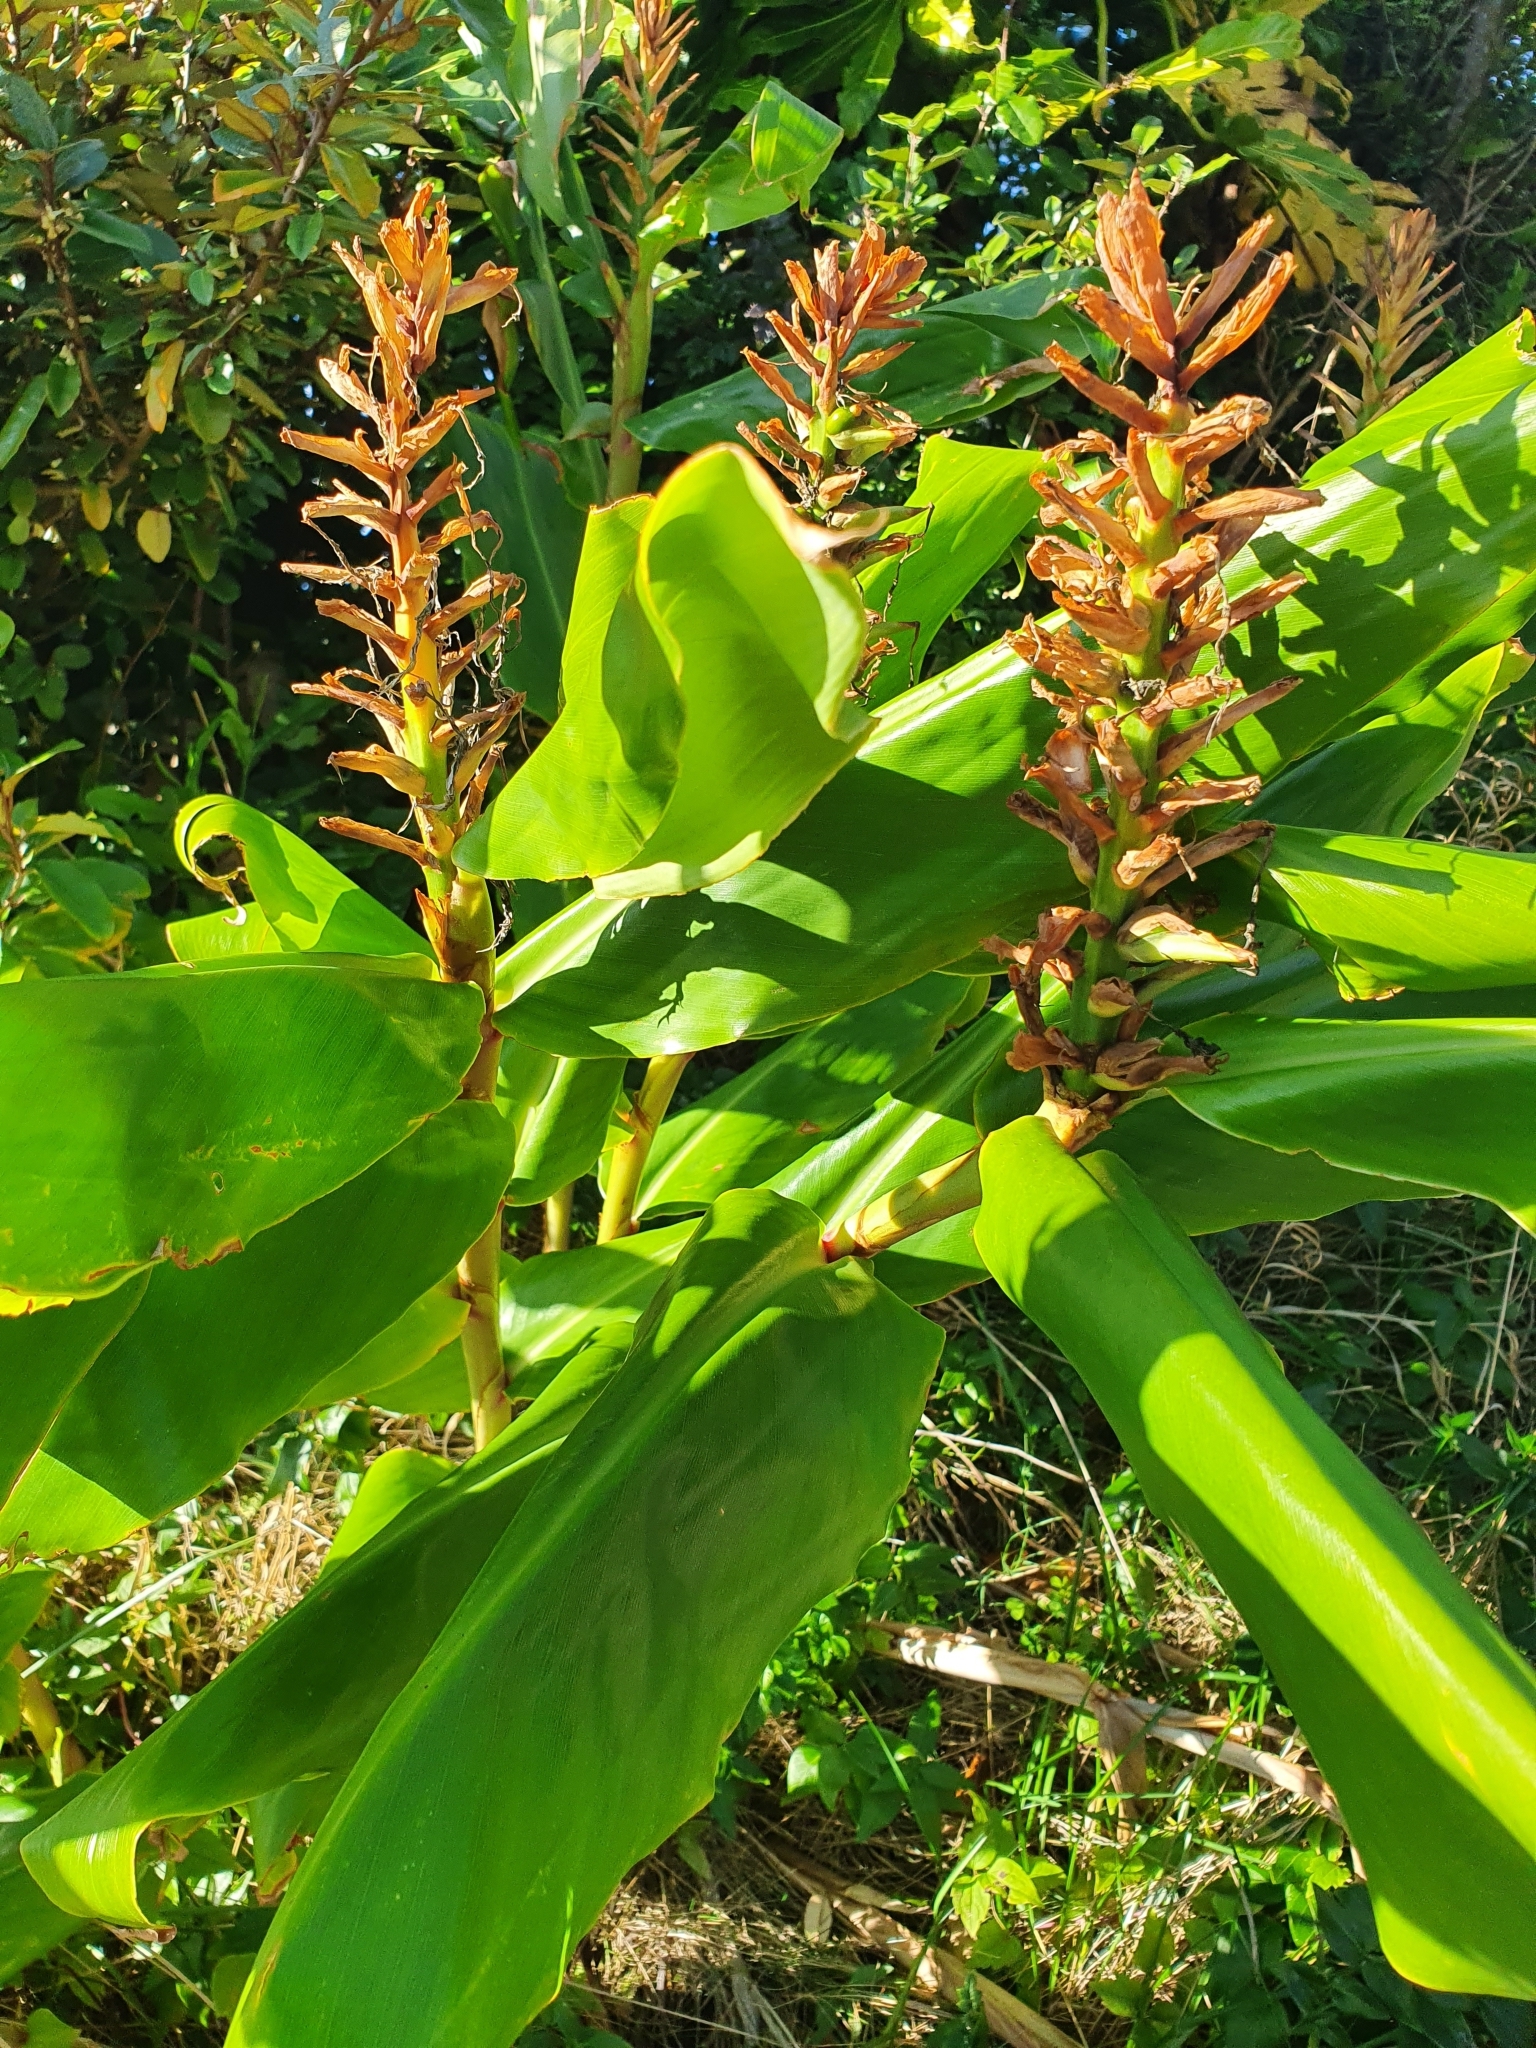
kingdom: Plantae
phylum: Tracheophyta
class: Liliopsida
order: Zingiberales
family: Zingiberaceae
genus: Hedychium
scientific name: Hedychium gardnerianum
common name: Himalayan ginger
